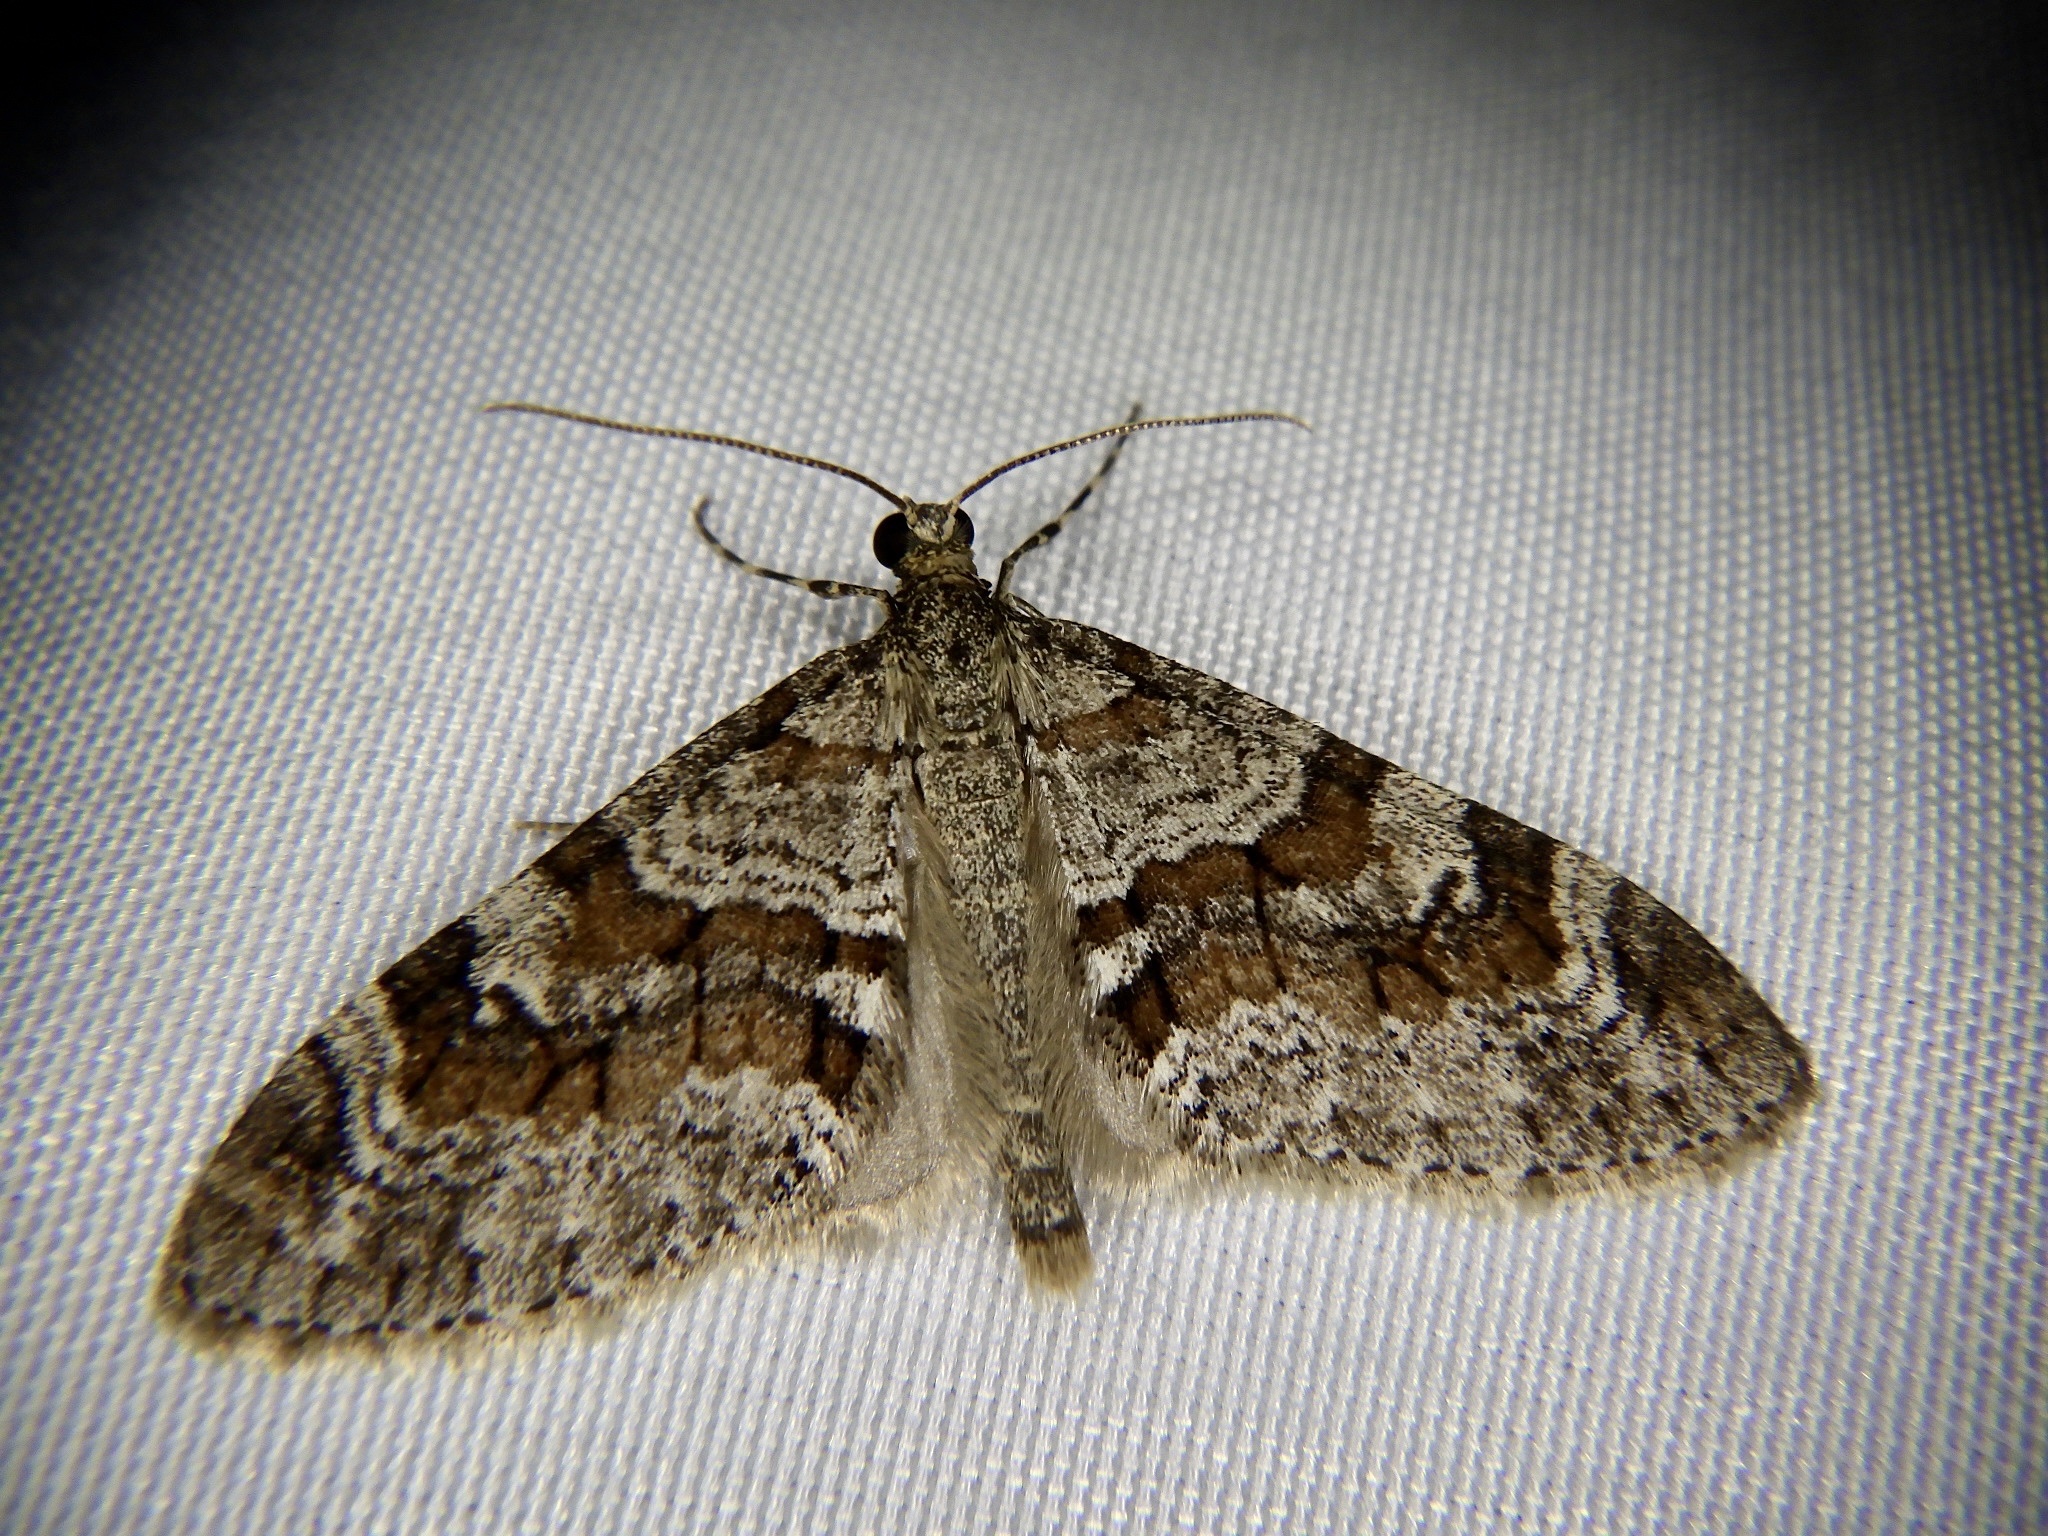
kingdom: Animalia
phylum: Arthropoda
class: Insecta
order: Lepidoptera
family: Geometridae
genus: Trichopteryx
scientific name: Trichopteryx terranea
